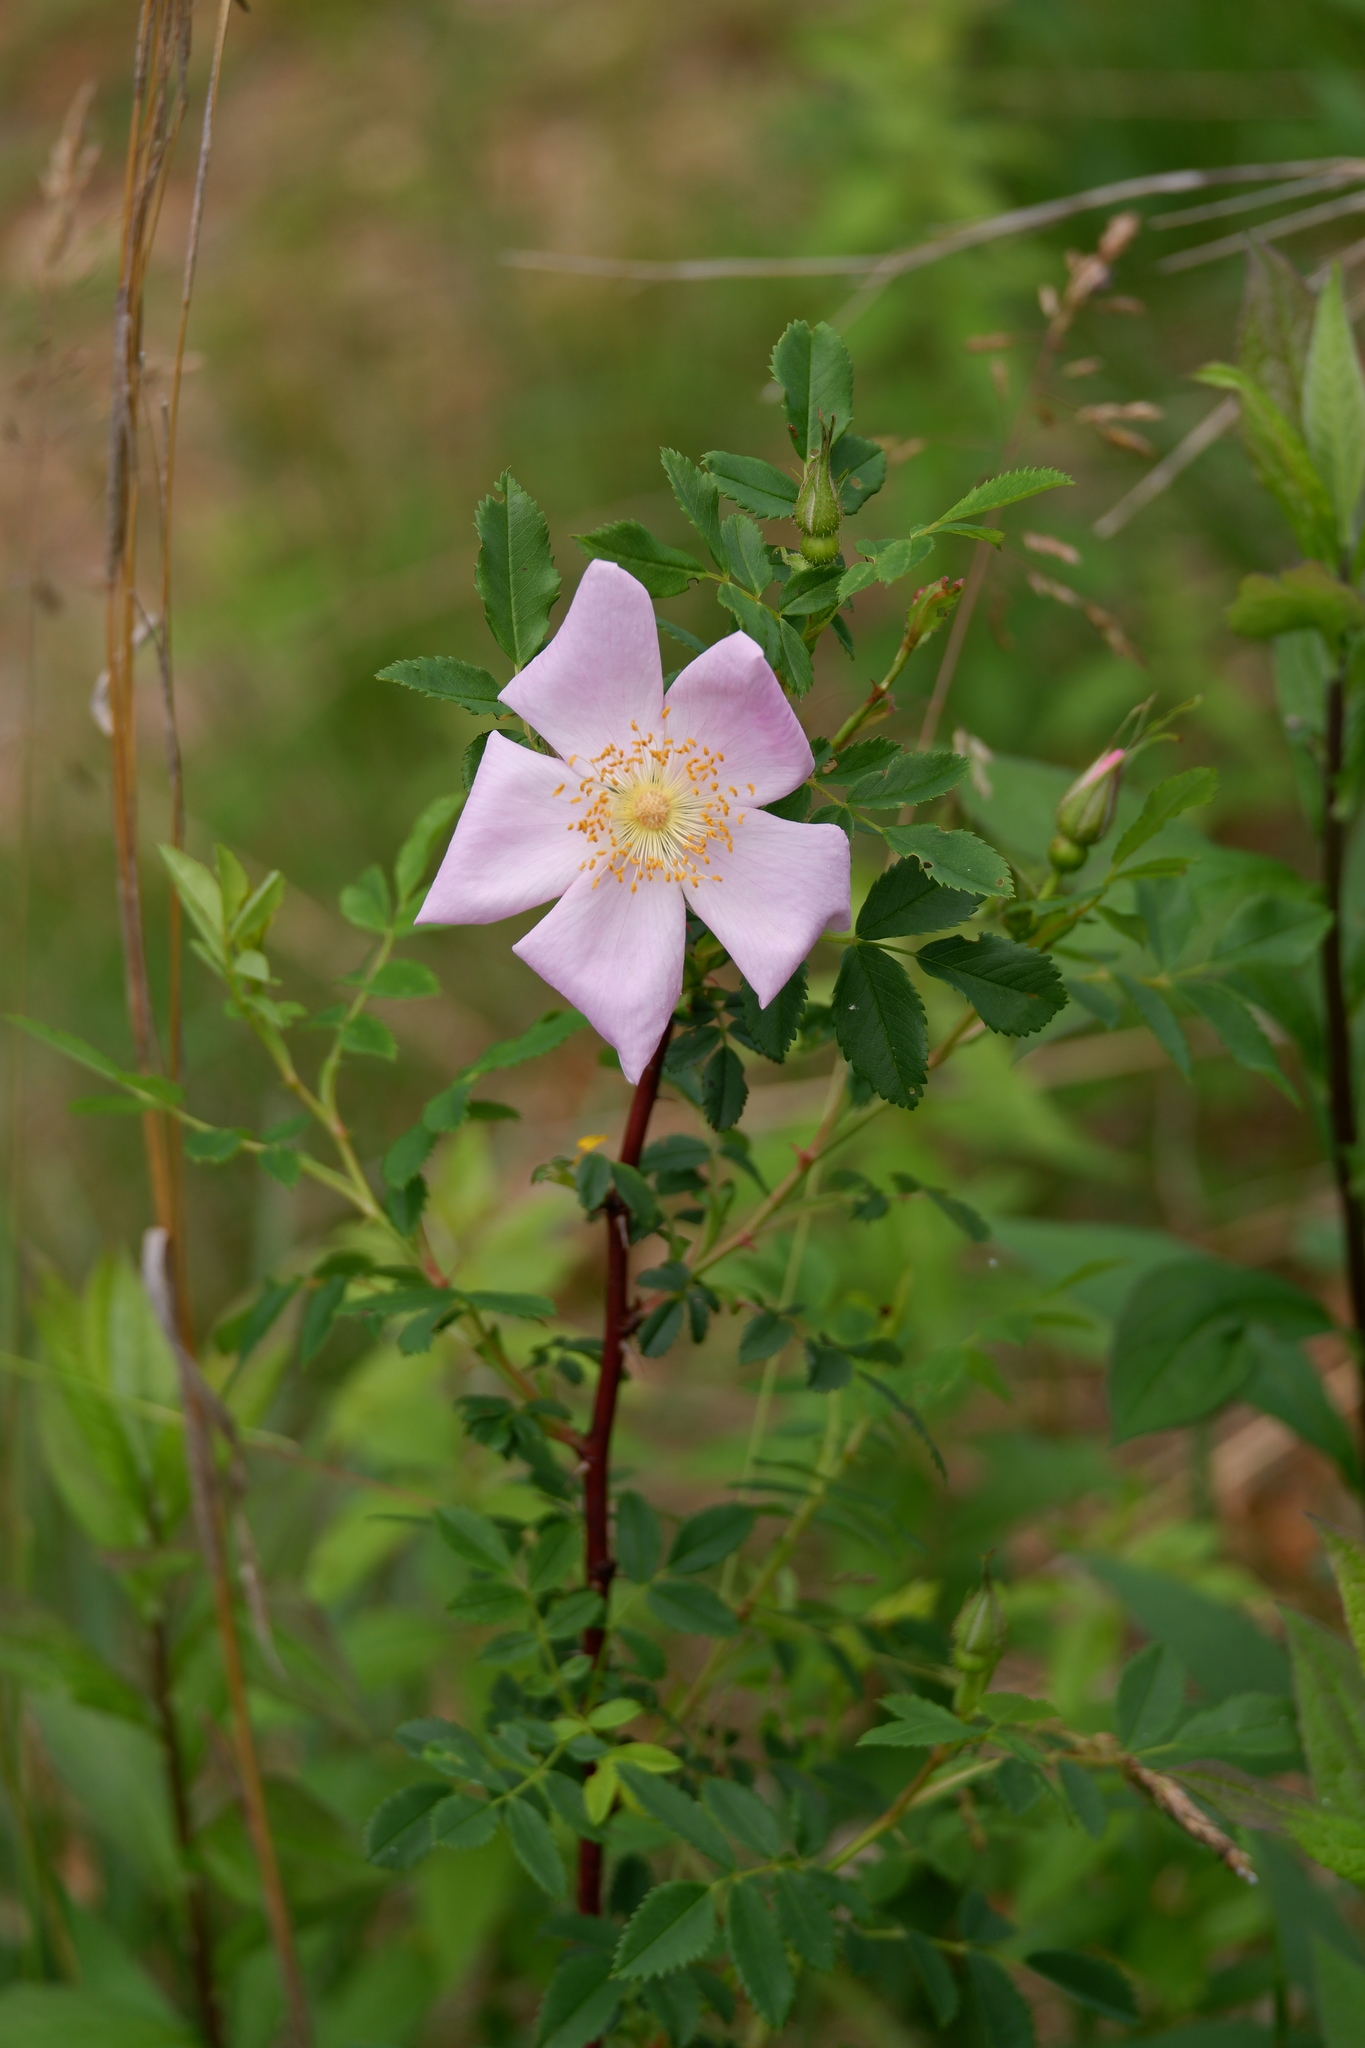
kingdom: Plantae
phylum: Tracheophyta
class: Magnoliopsida
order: Rosales
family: Rosaceae
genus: Rosa
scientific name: Rosa carolina
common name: Pasture rose
